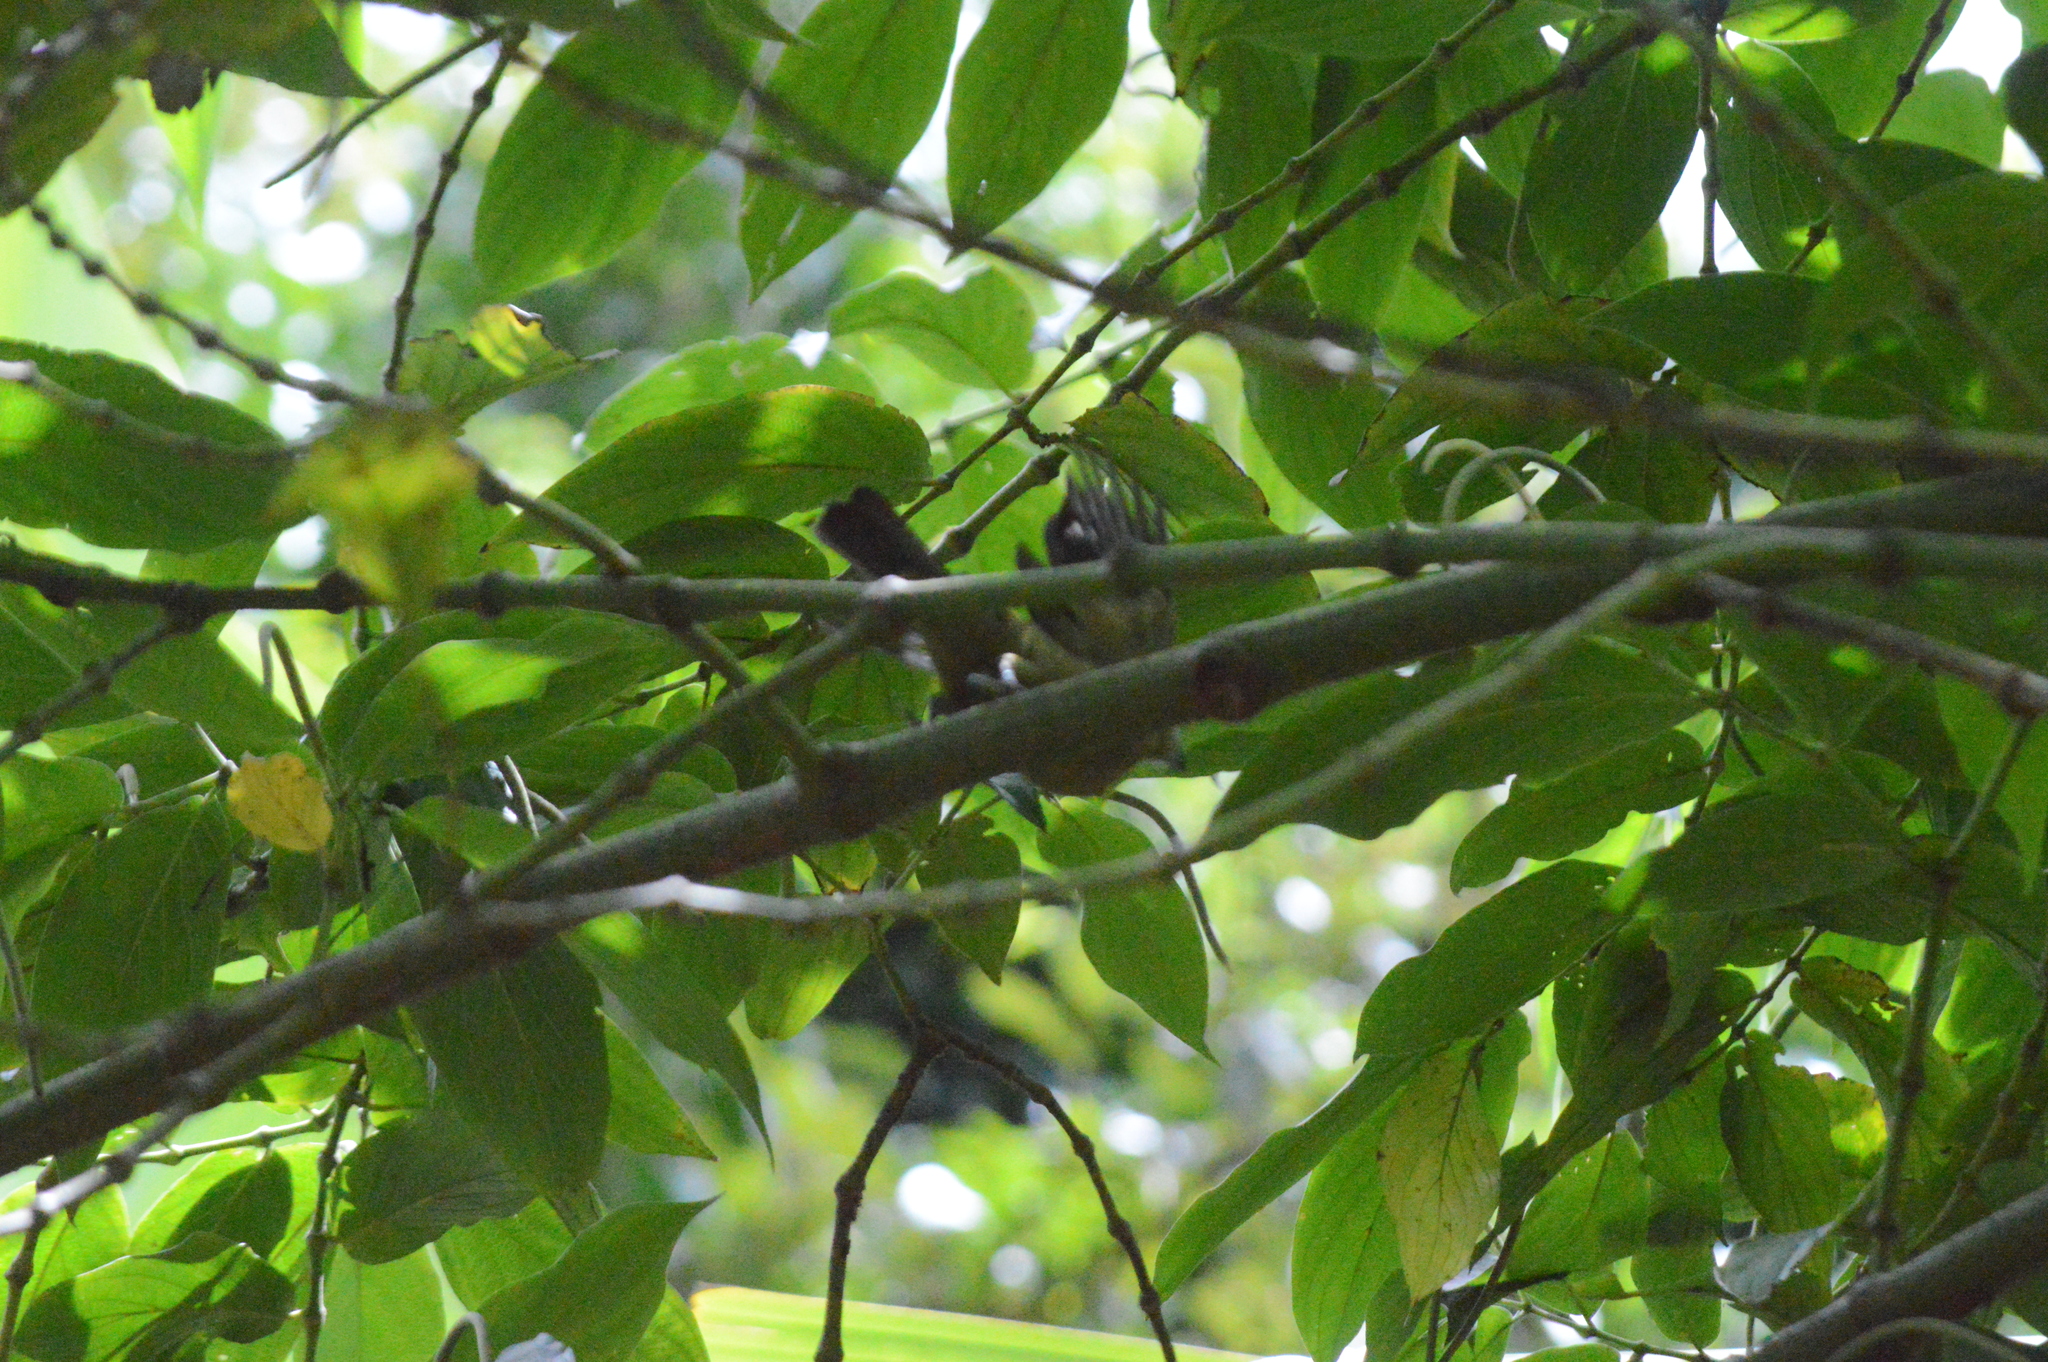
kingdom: Animalia
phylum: Chordata
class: Aves
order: Passeriformes
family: Thraupidae
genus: Thraupis
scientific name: Thraupis palmarum
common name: Palm tanager
